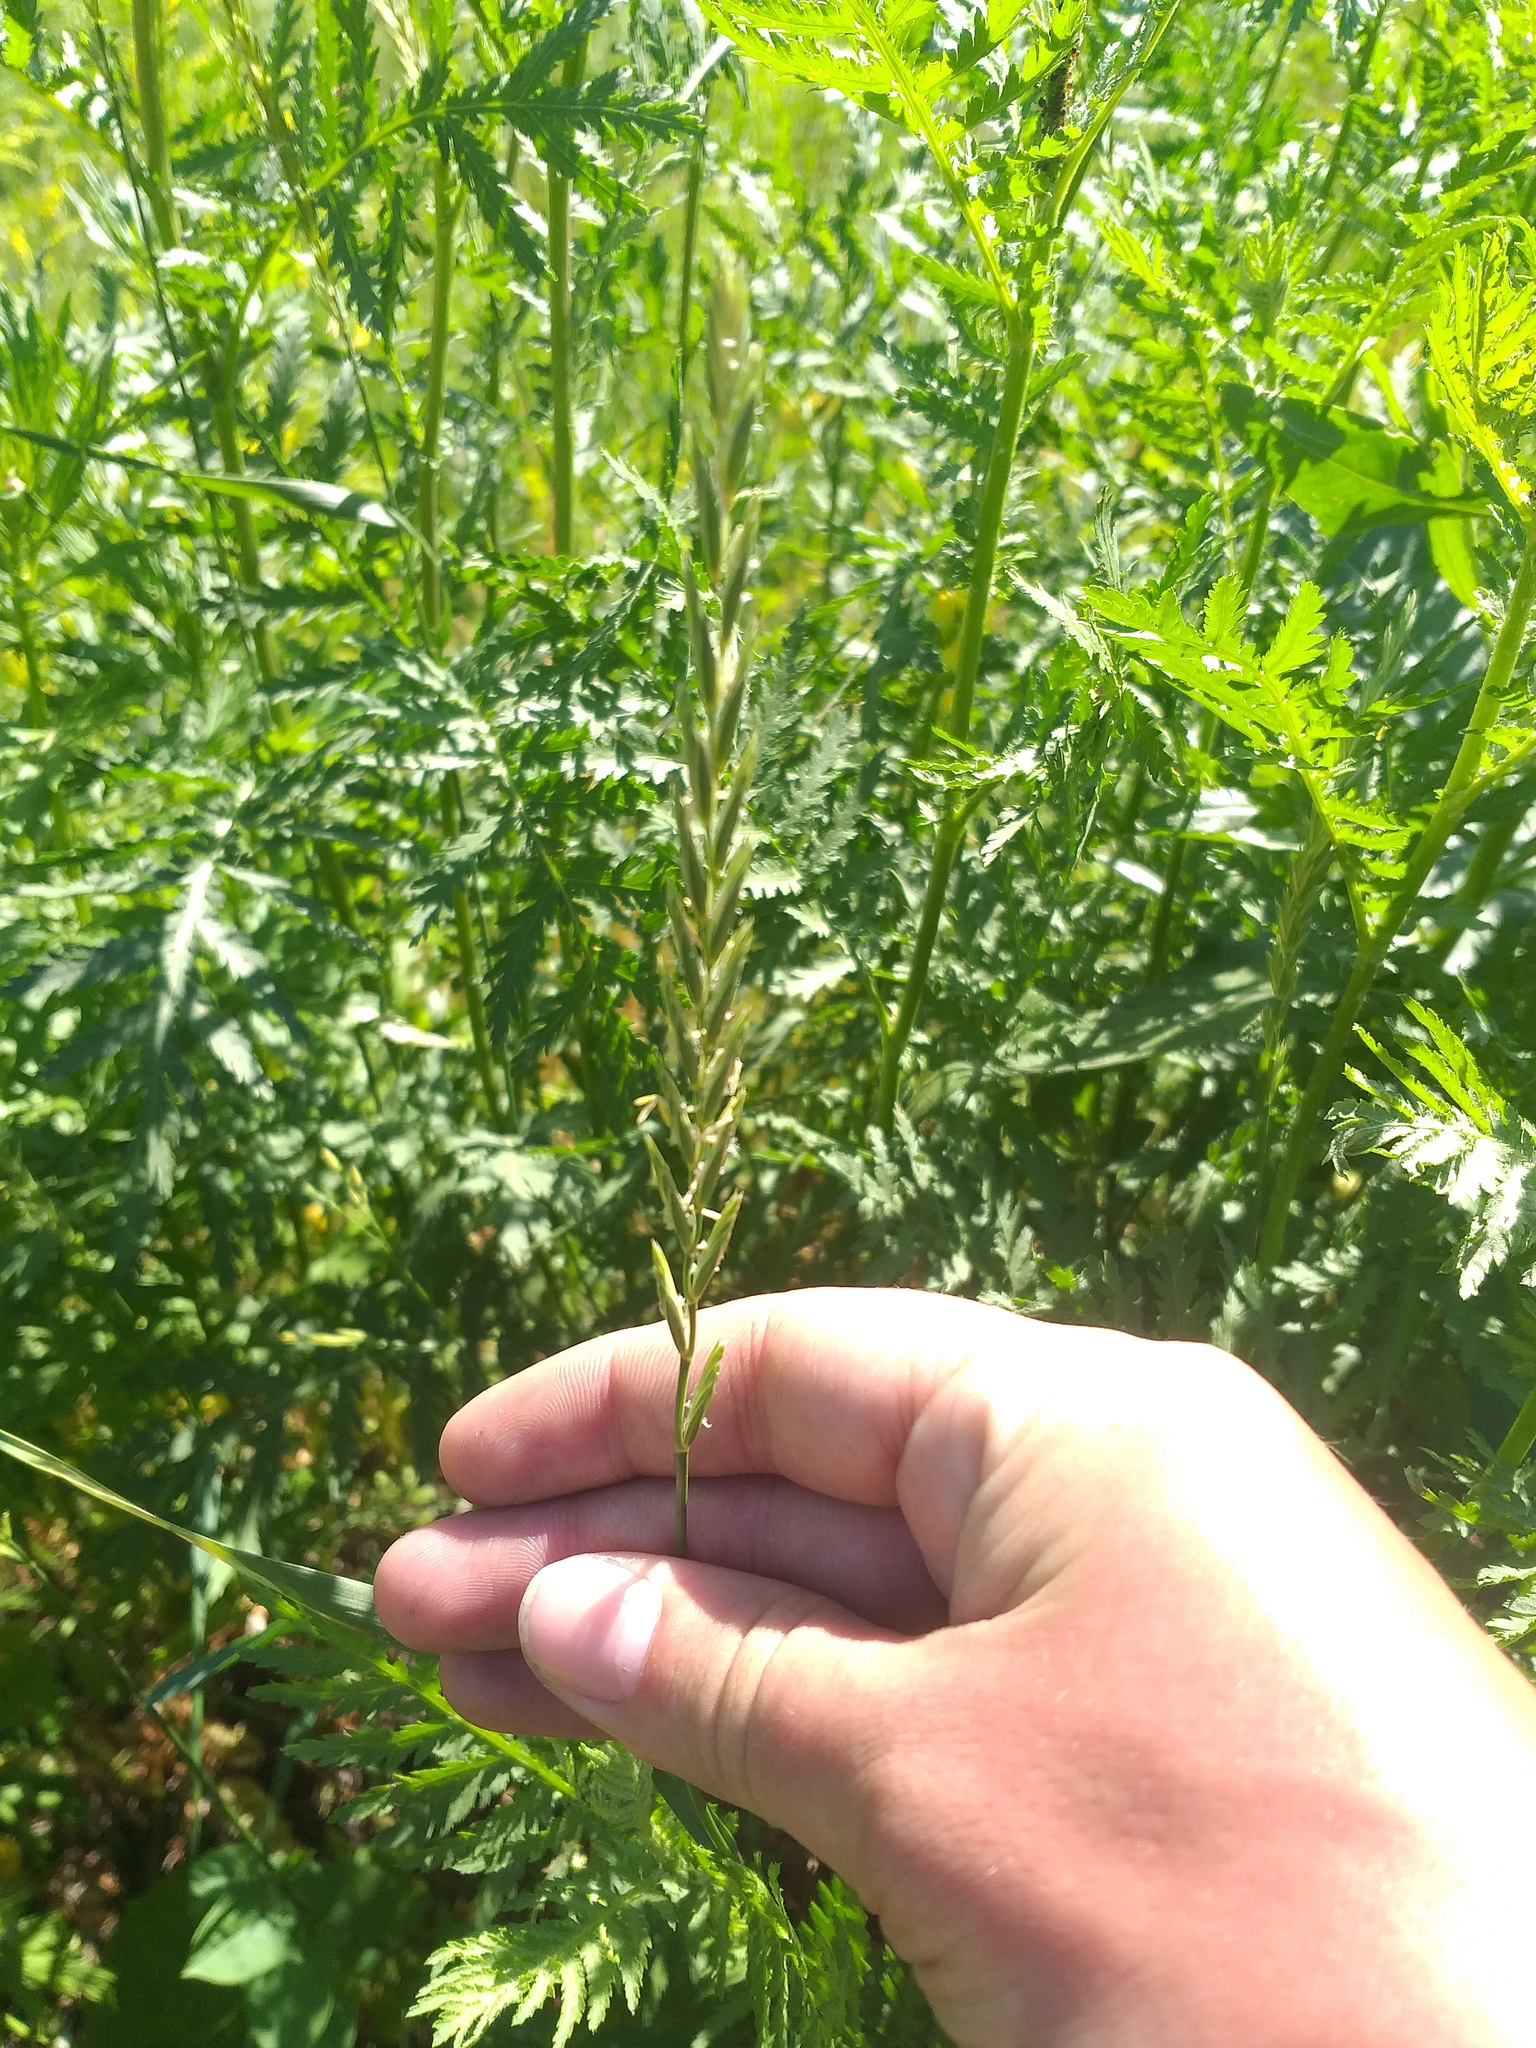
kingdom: Plantae
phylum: Tracheophyta
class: Liliopsida
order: Poales
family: Poaceae
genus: Elymus
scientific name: Elymus repens
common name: Quackgrass
